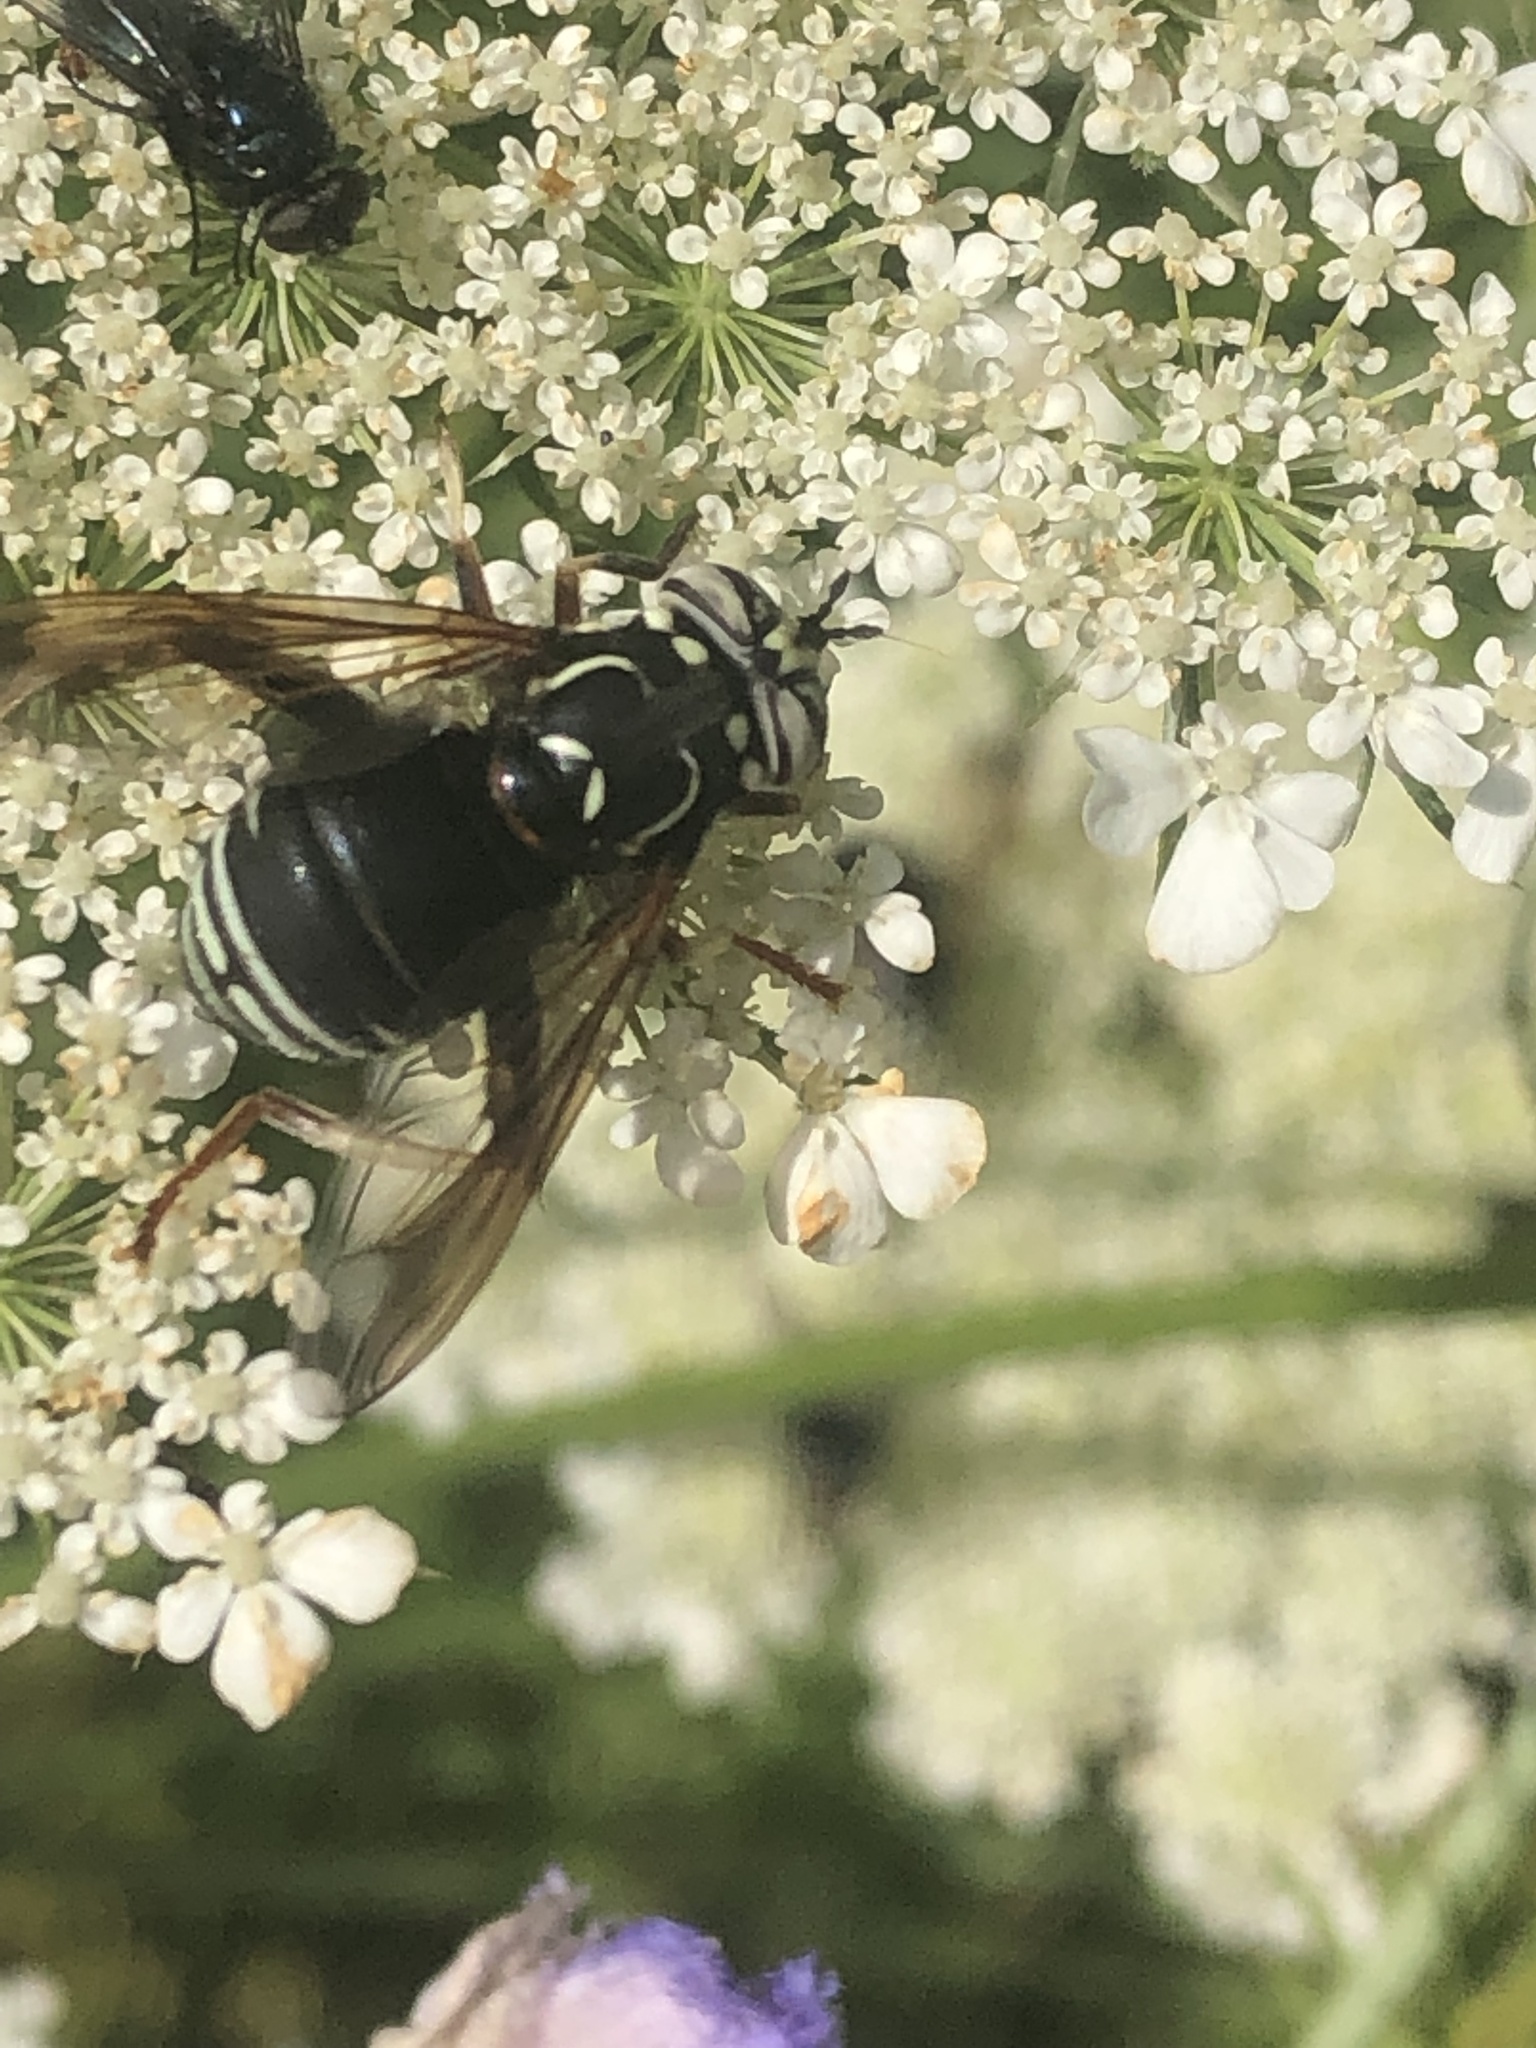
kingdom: Animalia
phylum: Arthropoda
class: Insecta
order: Diptera
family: Syrphidae
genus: Spilomyia
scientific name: Spilomyia fusca
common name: Bald-faced hornet fly
